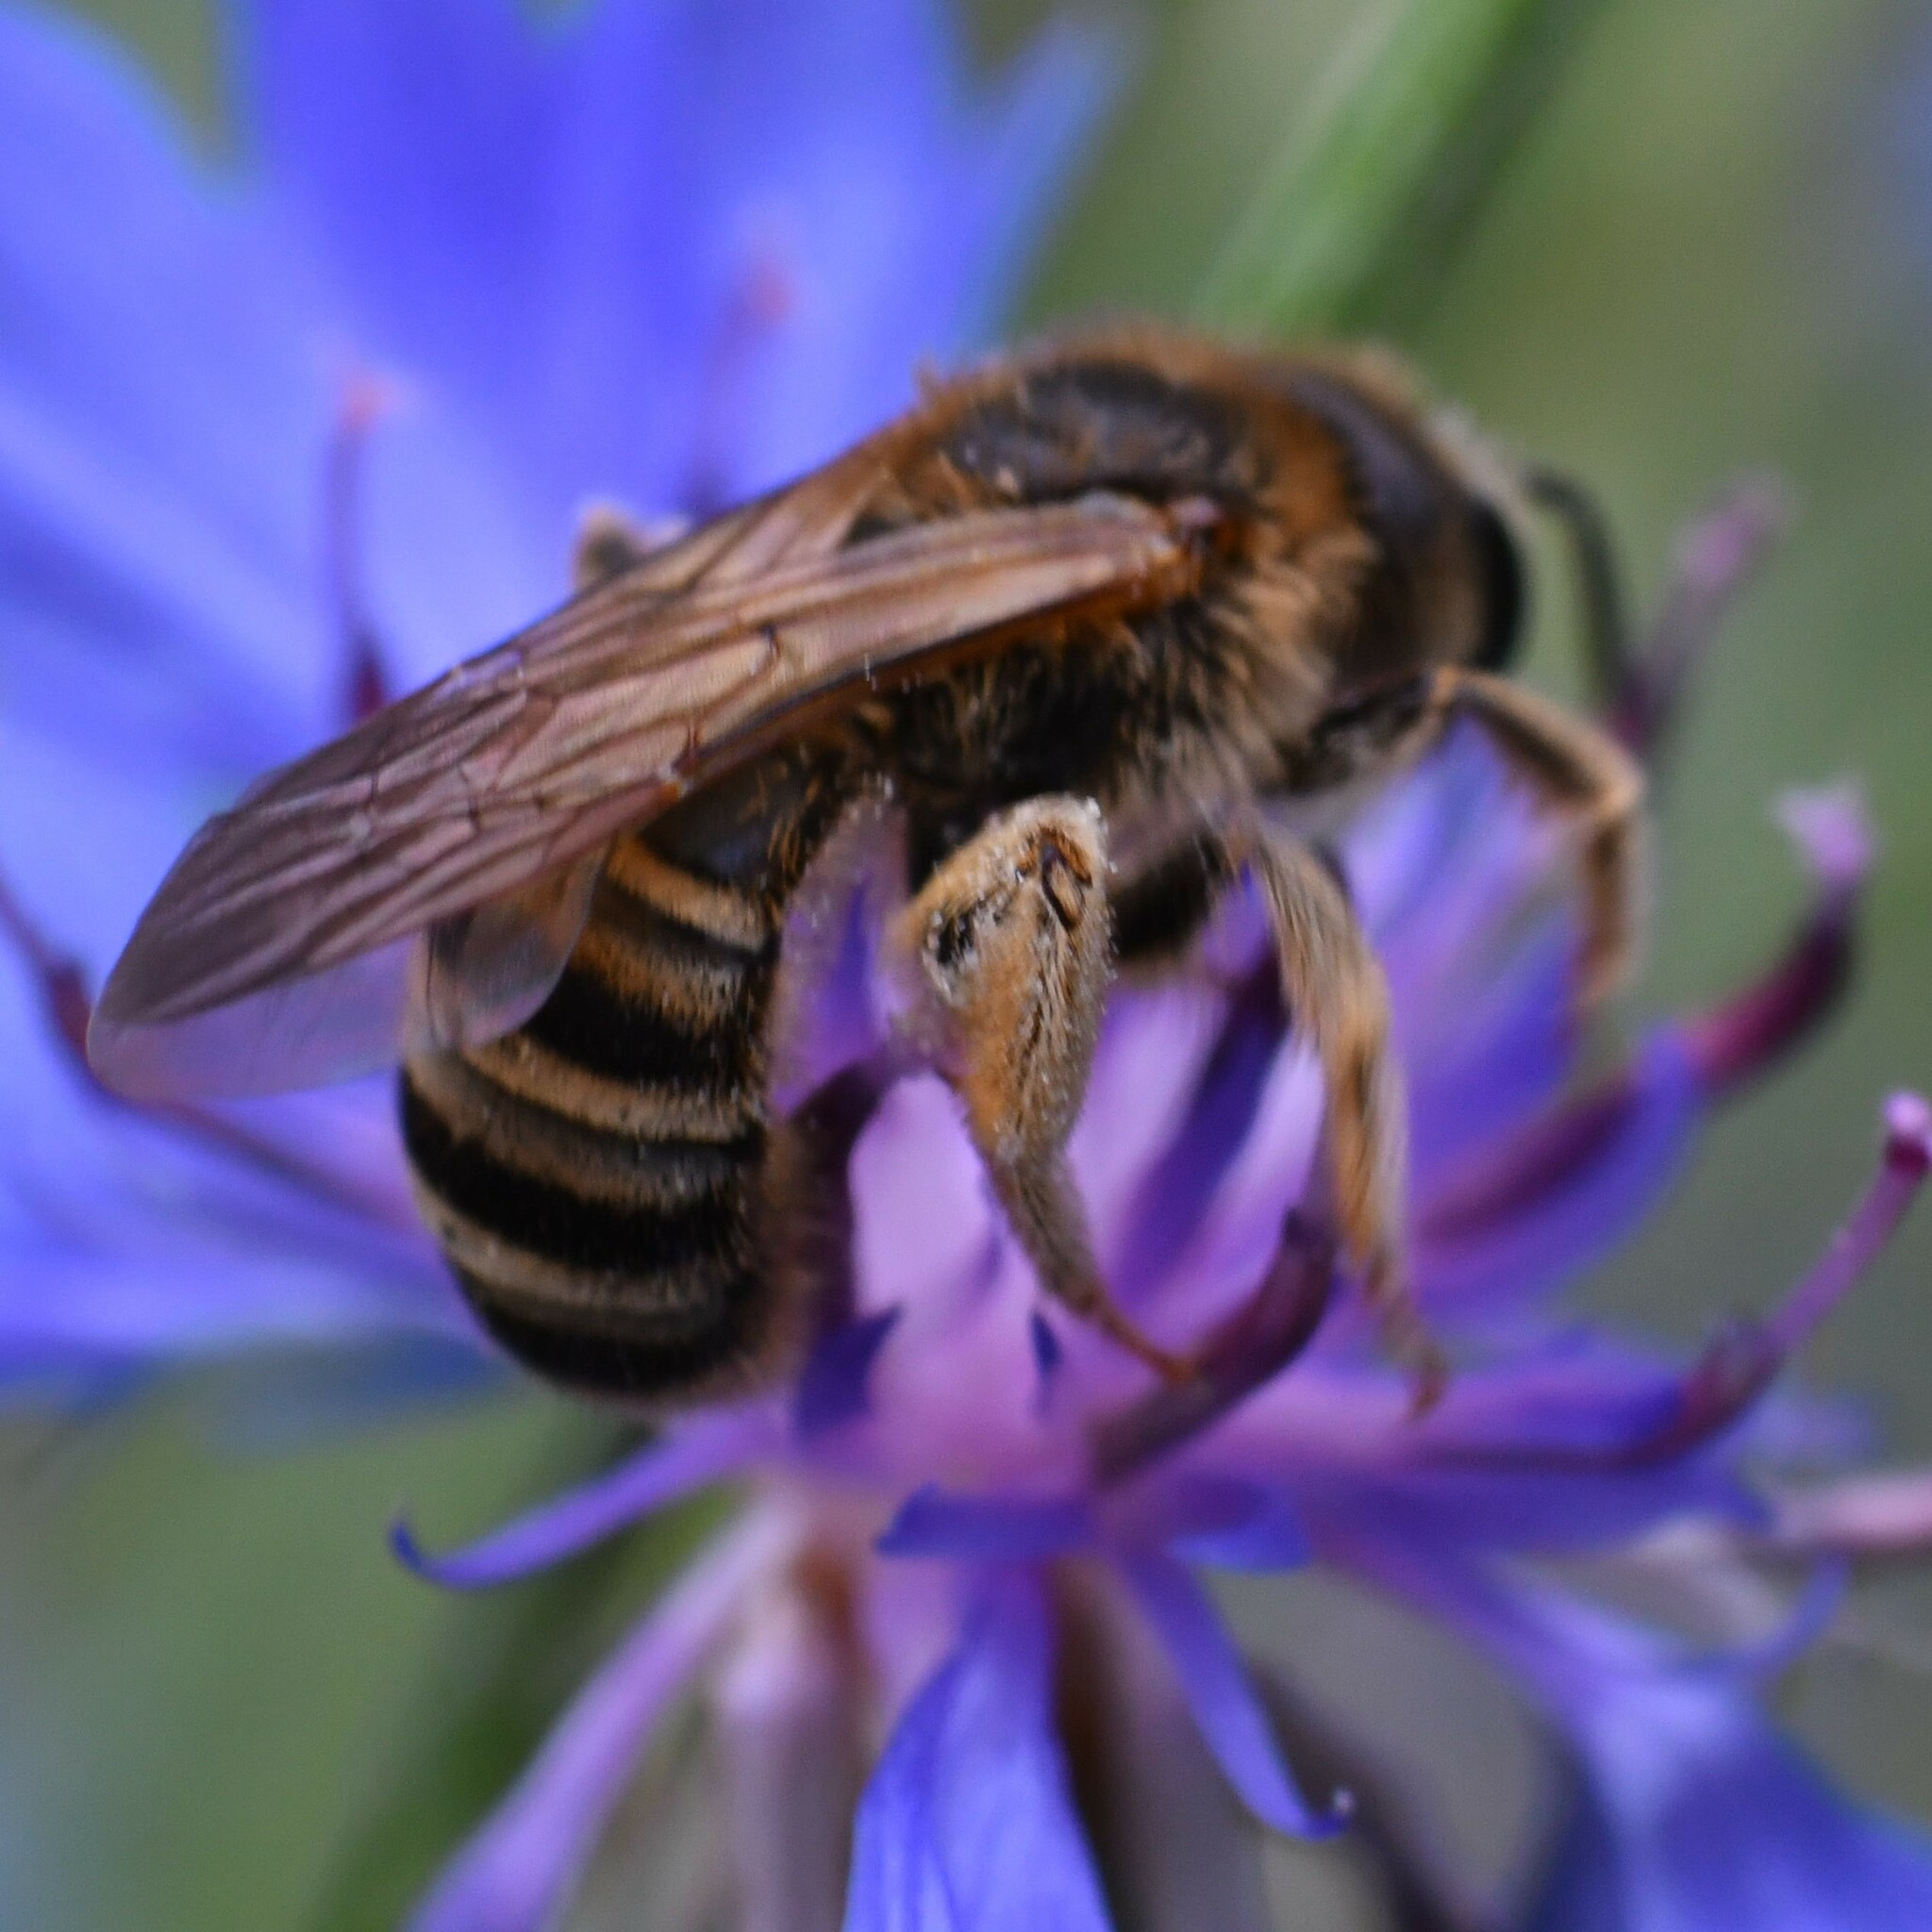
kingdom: Animalia
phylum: Arthropoda
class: Insecta
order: Hymenoptera
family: Halictidae
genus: Halictus
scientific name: Halictus scabiosae
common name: Great banded furrow bee
